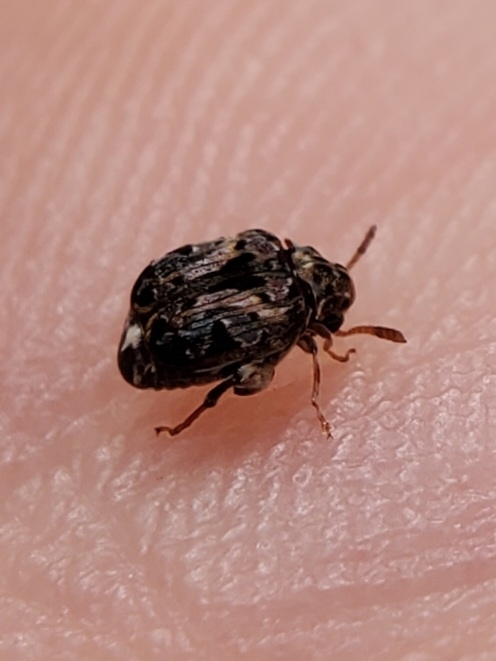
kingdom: Animalia
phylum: Arthropoda
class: Insecta
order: Coleoptera
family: Chrysomelidae
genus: Gibbobruchus
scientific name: Gibbobruchus mimus
